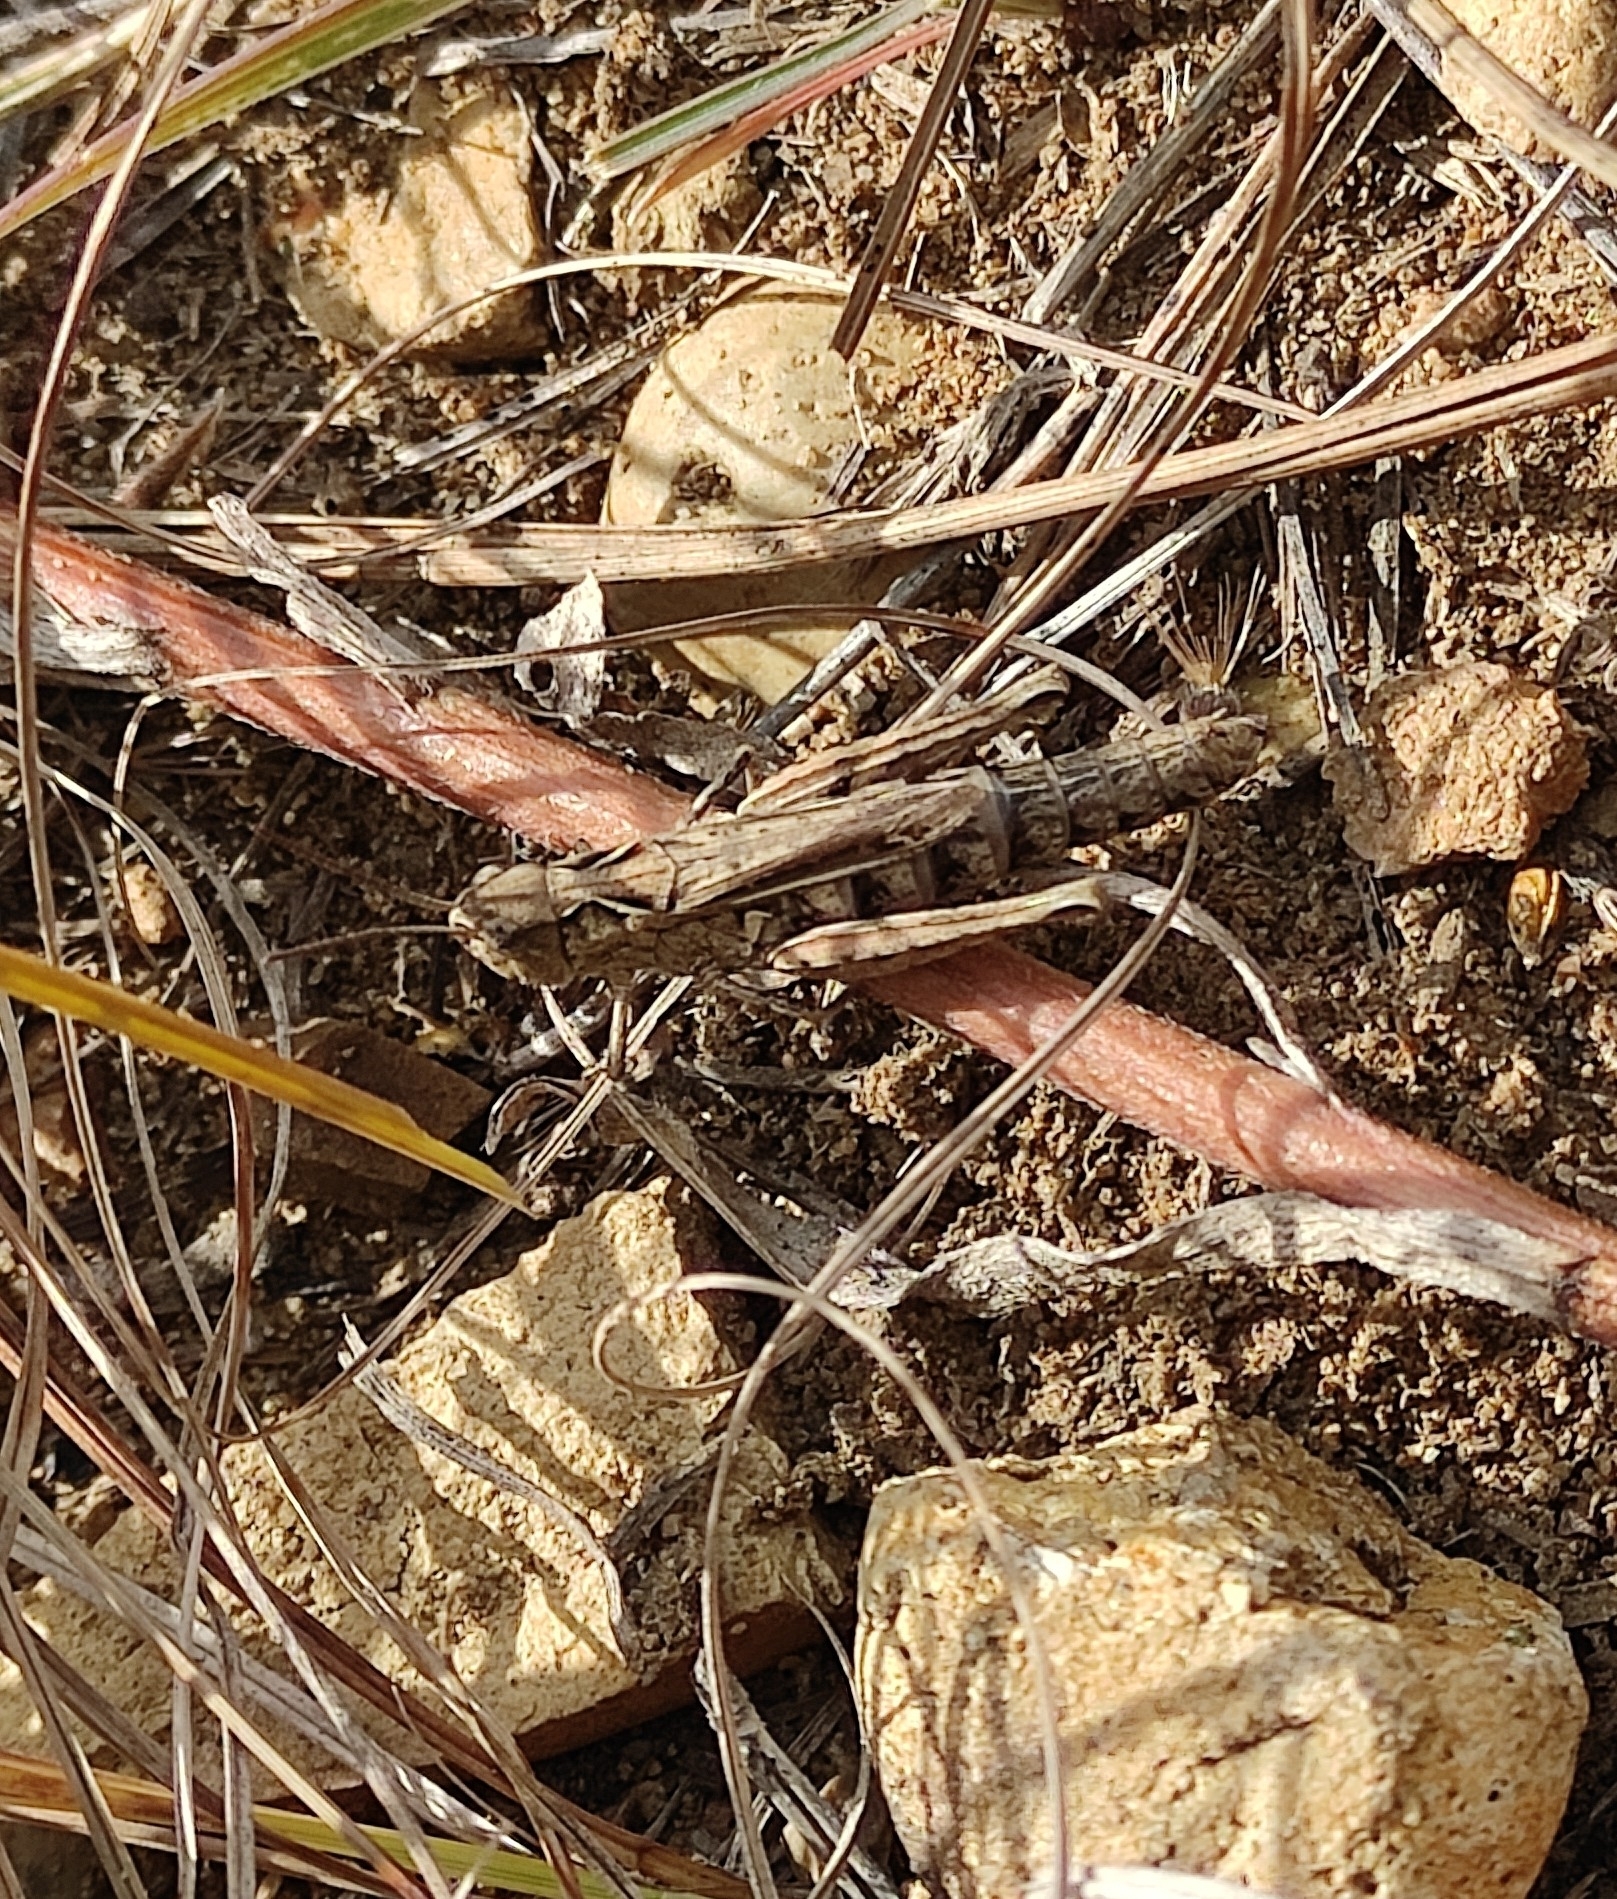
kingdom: Animalia
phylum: Arthropoda
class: Insecta
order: Orthoptera
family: Acrididae
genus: Chorthippus
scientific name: Chorthippus dubius
